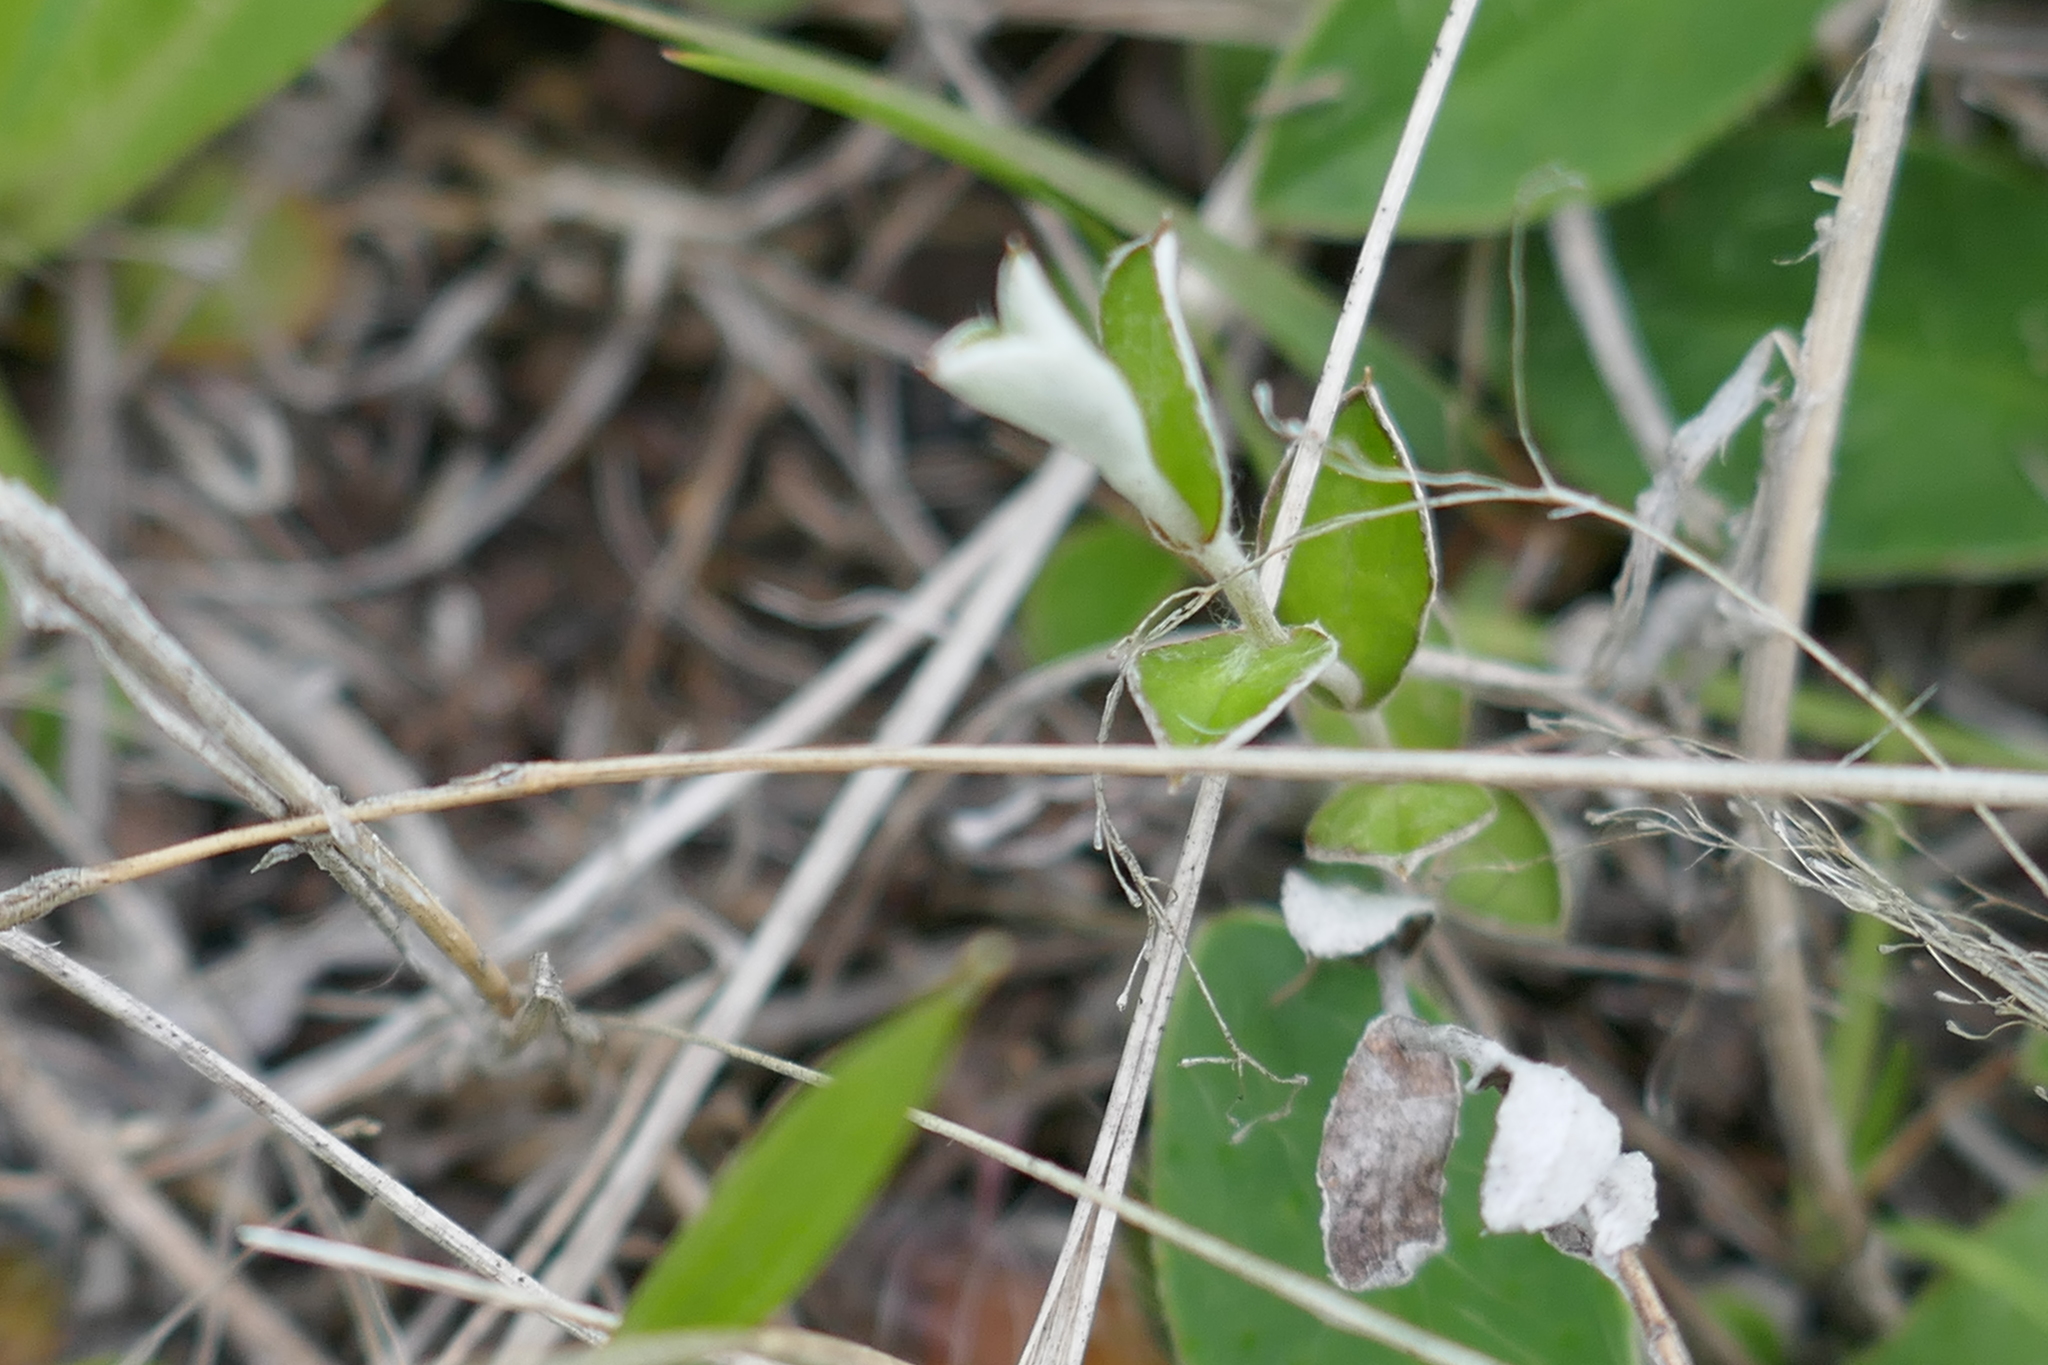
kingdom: Plantae
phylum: Tracheophyta
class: Magnoliopsida
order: Asterales
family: Asteraceae
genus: Helichrysum
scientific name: Helichrysum filicaule
